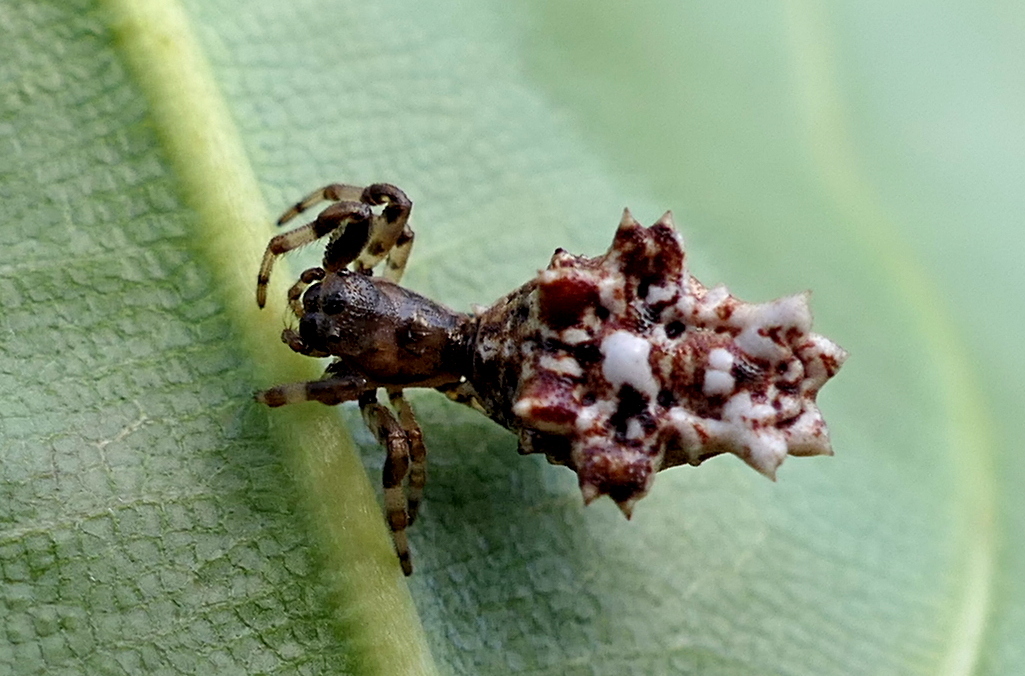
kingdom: Animalia
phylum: Arthropoda
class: Arachnida
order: Araneae
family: Araneidae
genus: Micrathena
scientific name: Micrathena horrida
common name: Orb weavers
